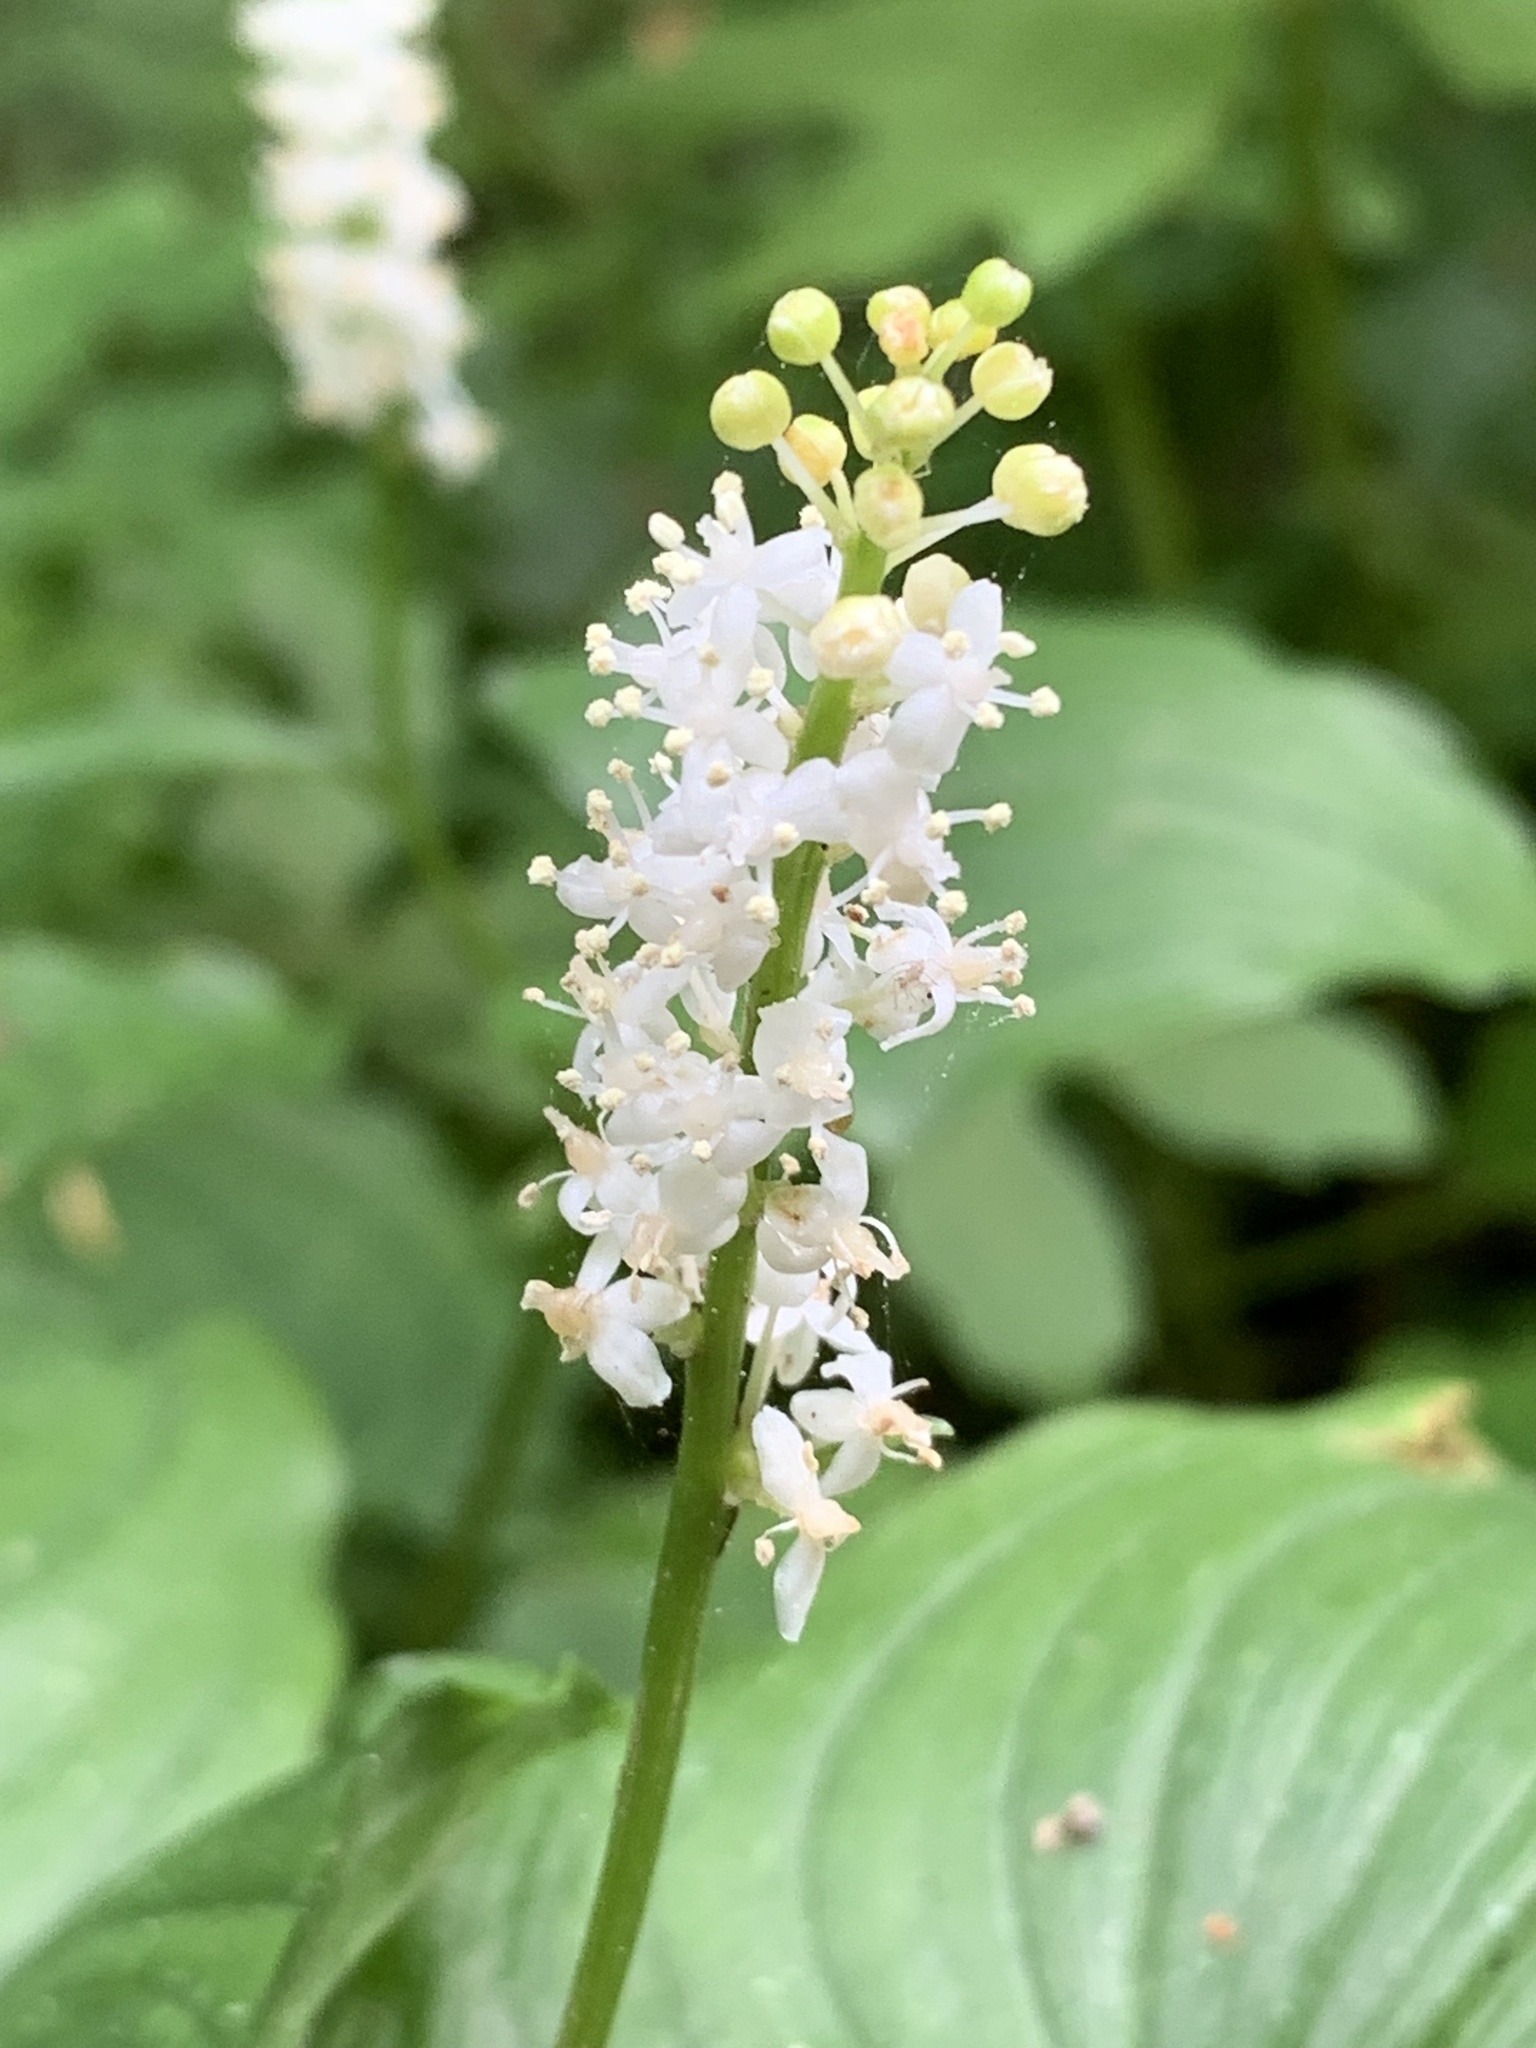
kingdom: Plantae
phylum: Tracheophyta
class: Liliopsida
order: Asparagales
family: Asparagaceae
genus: Maianthemum
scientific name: Maianthemum dilatatum
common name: False lily-of-the-valley
